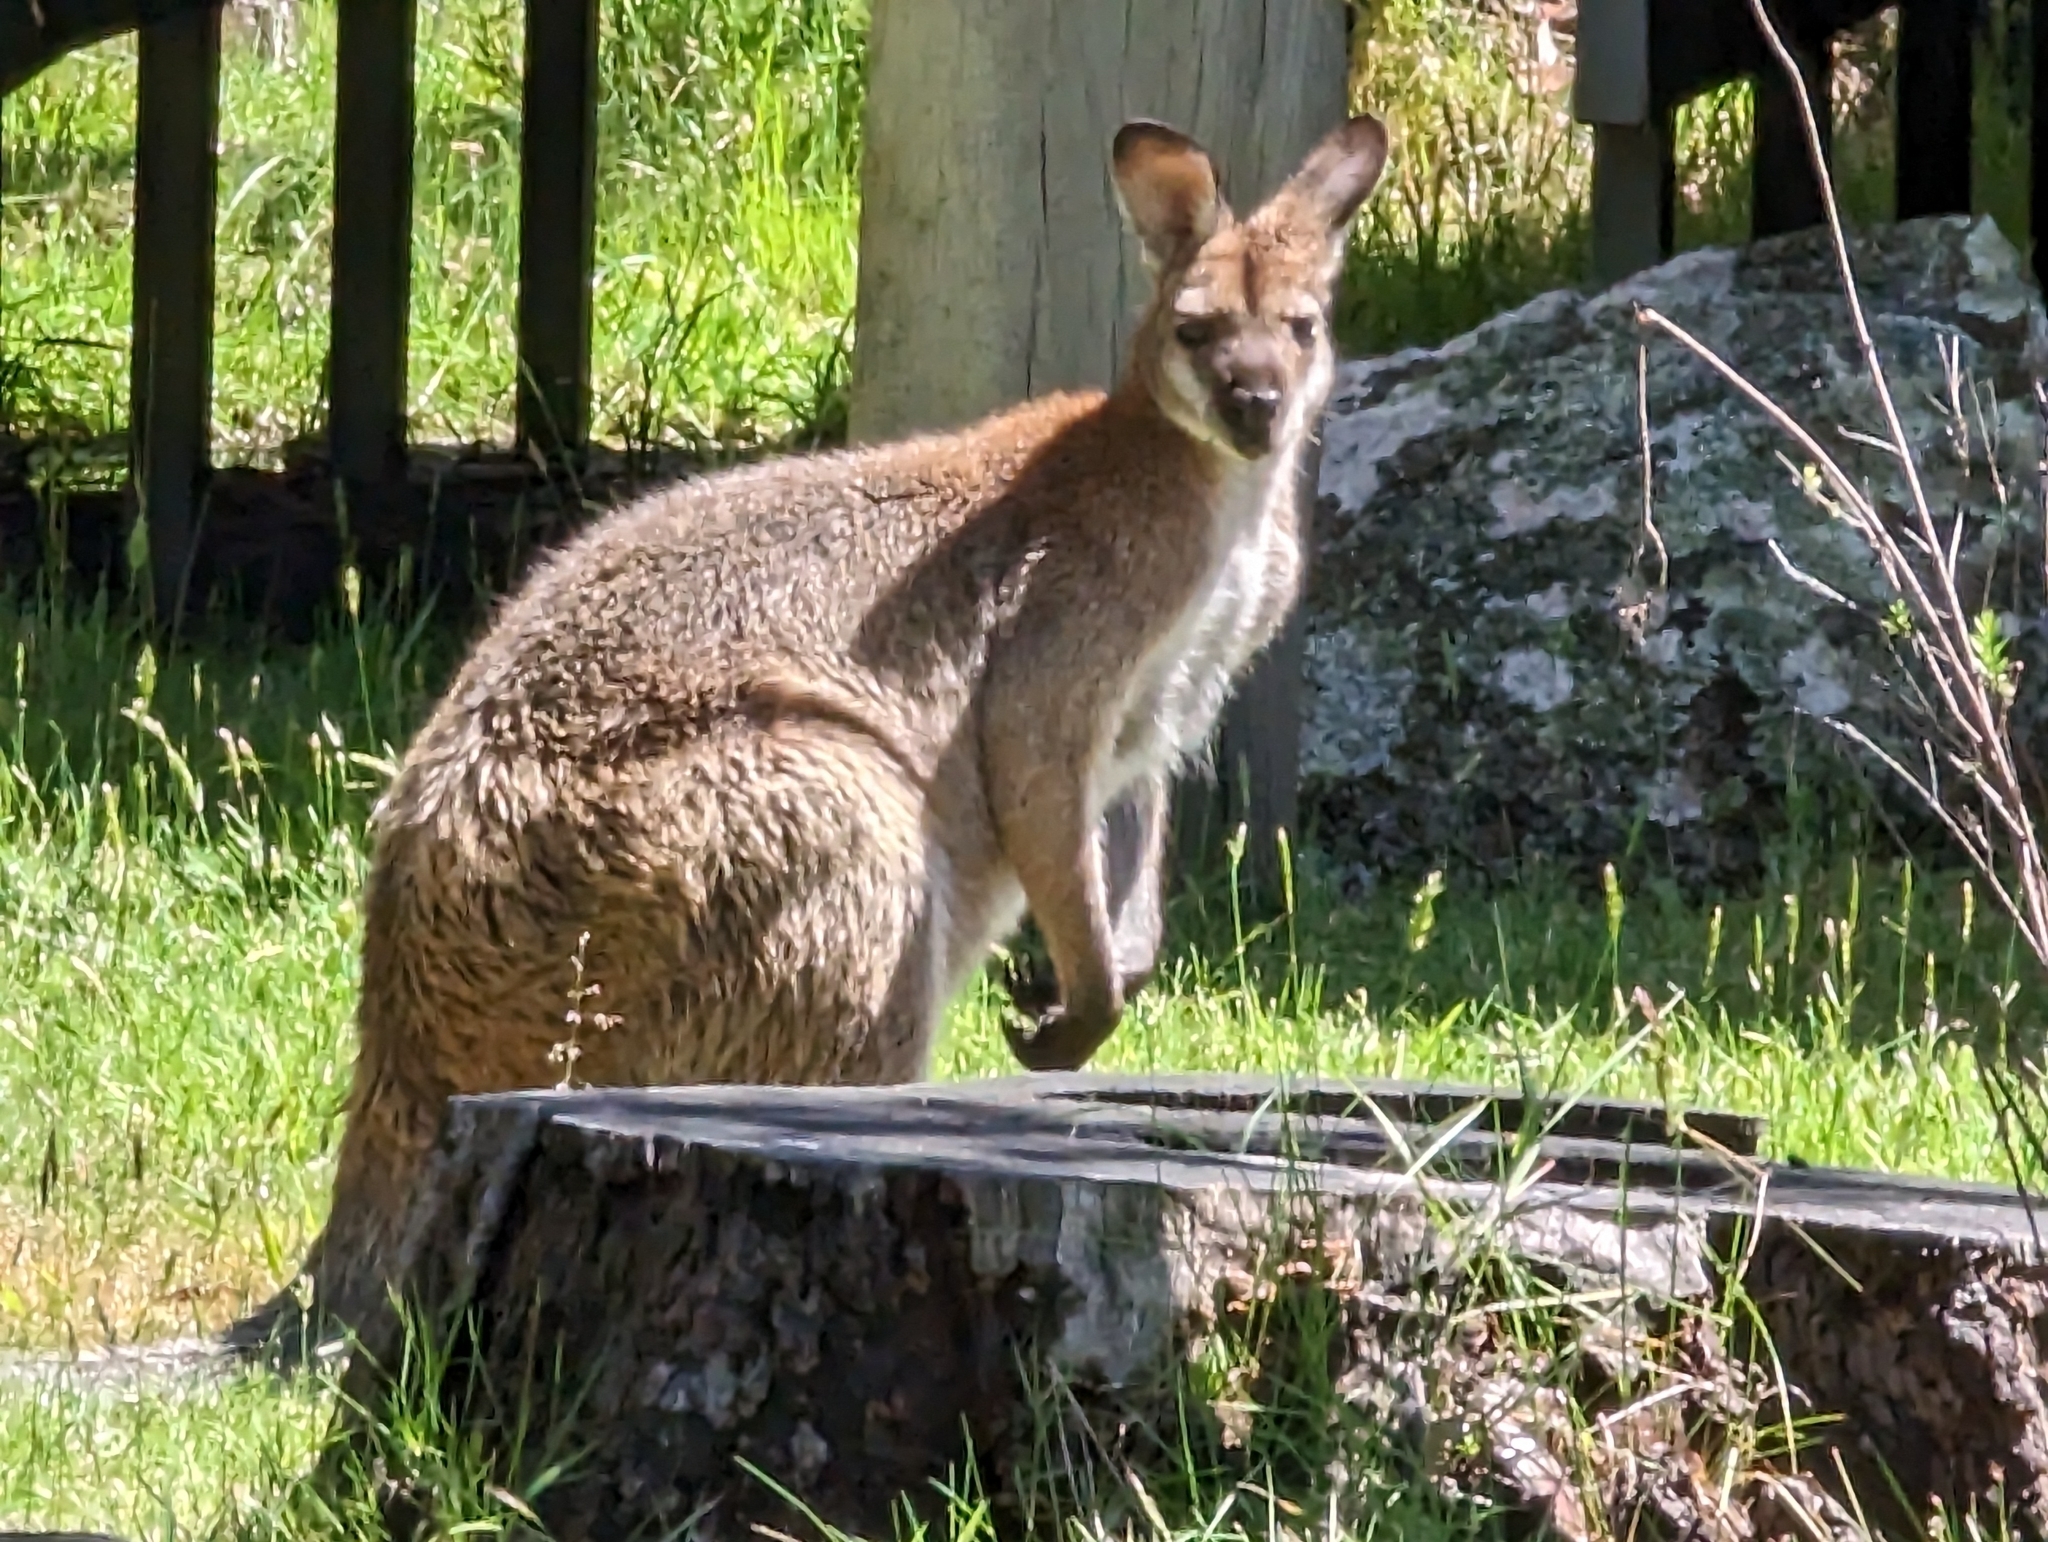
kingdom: Animalia
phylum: Chordata
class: Mammalia
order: Diprotodontia
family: Macropodidae
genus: Notamacropus
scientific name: Notamacropus rufogriseus
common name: Red-necked wallaby
